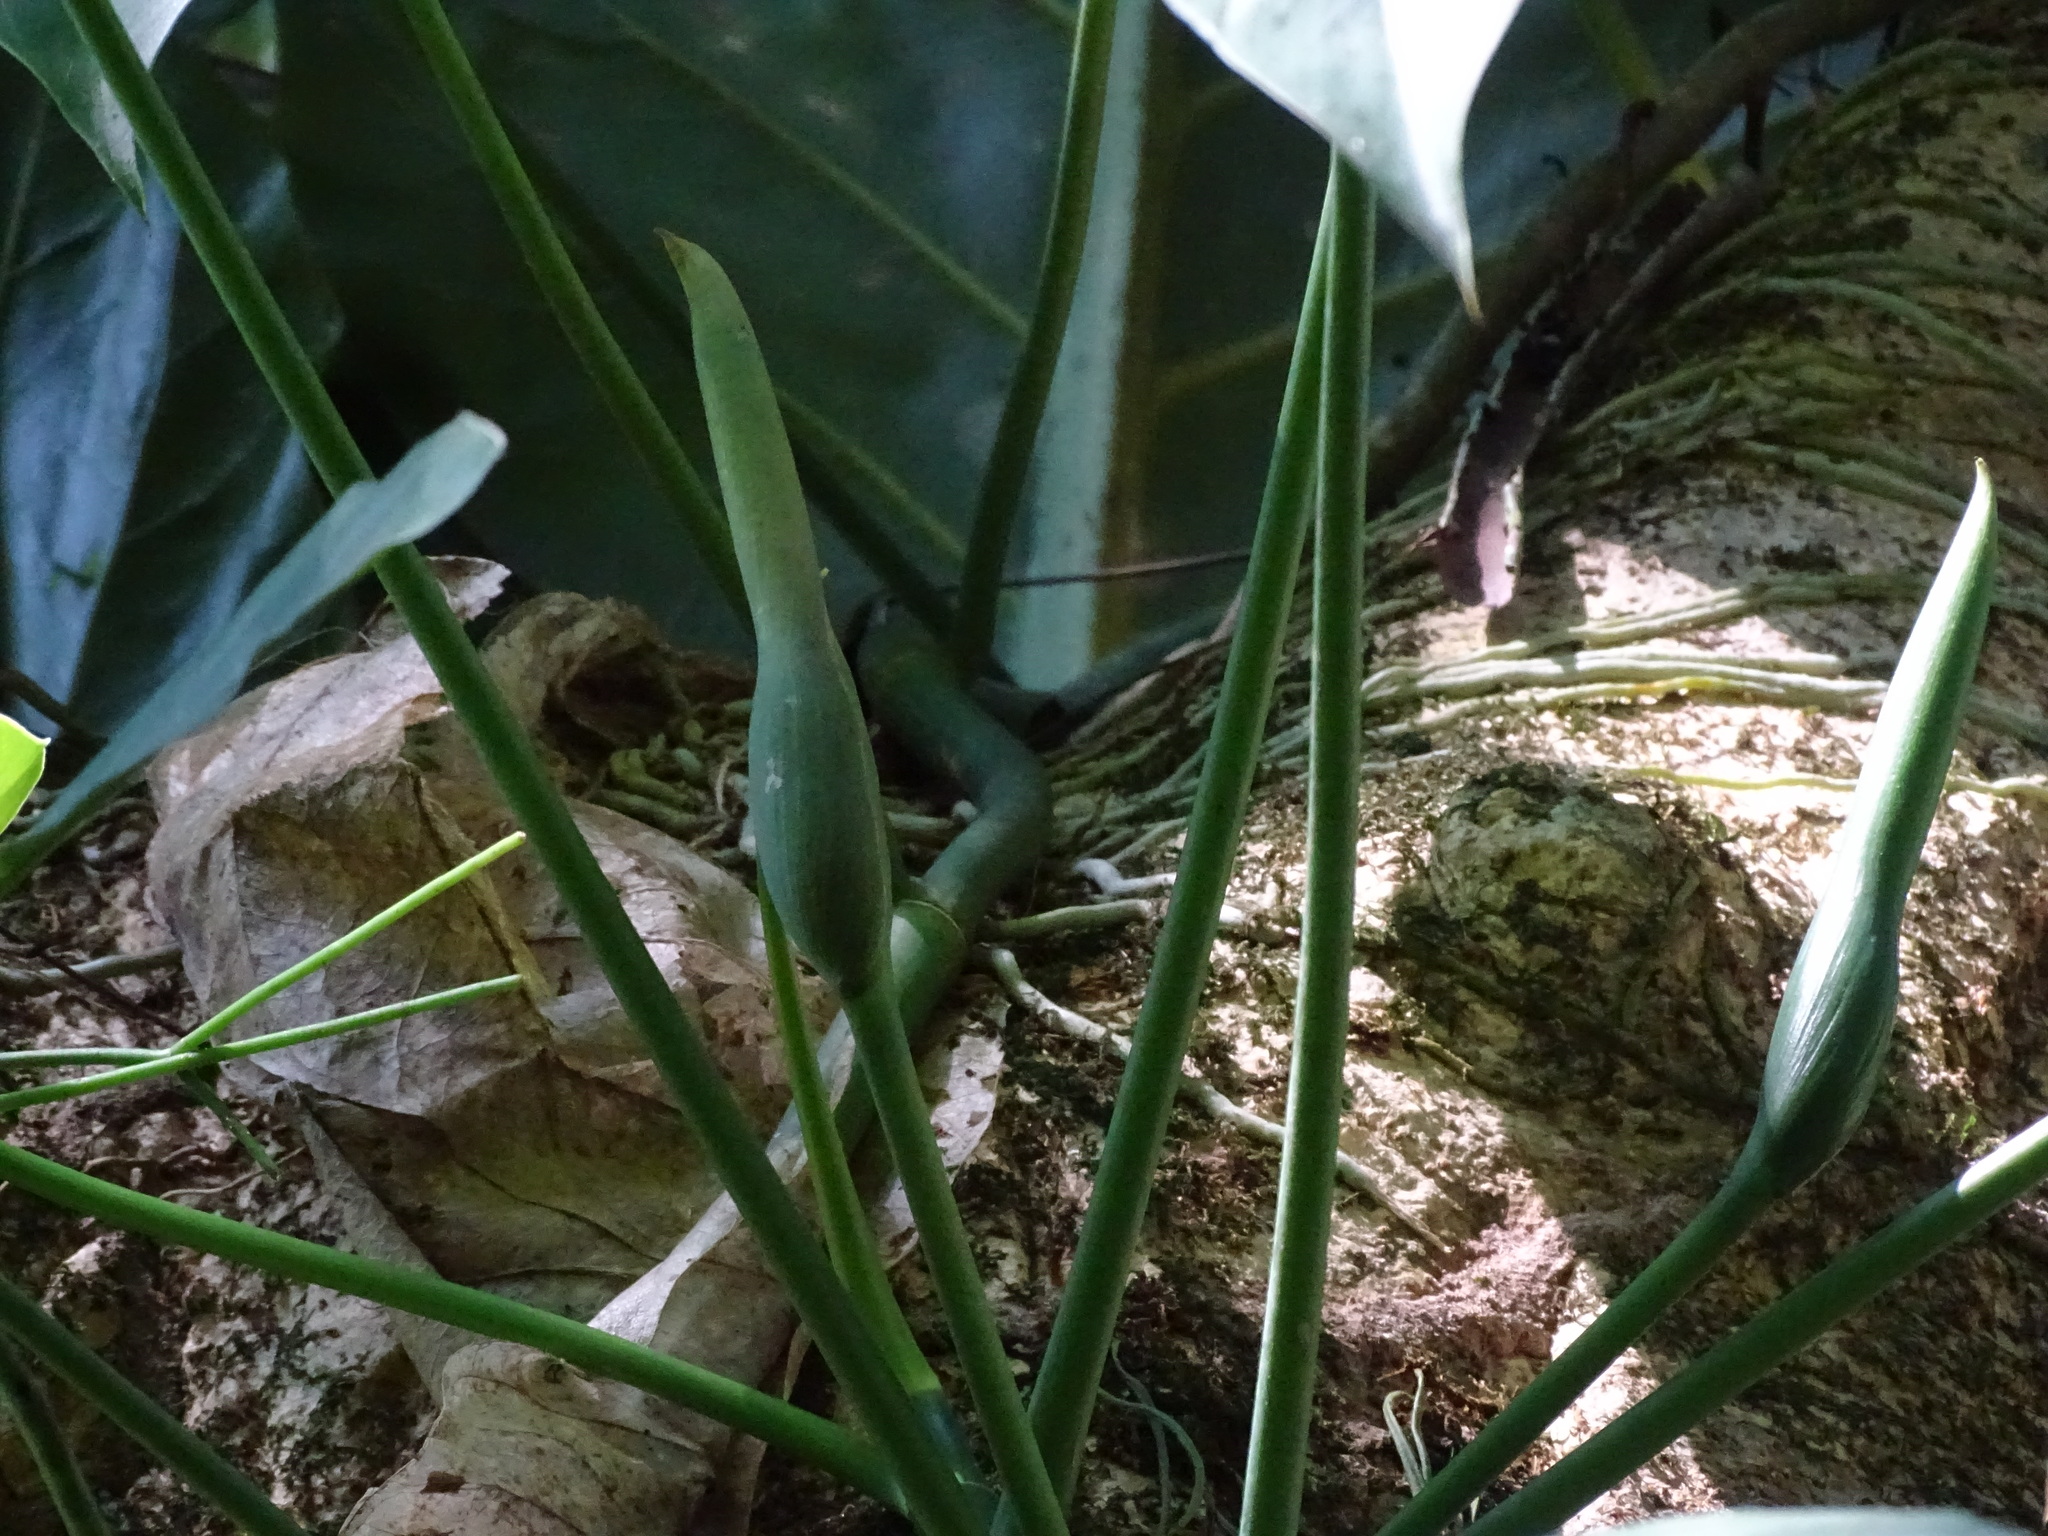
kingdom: Plantae
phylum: Tracheophyta
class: Liliopsida
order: Alismatales
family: Araceae
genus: Philodendron
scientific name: Philodendron anisotomum
